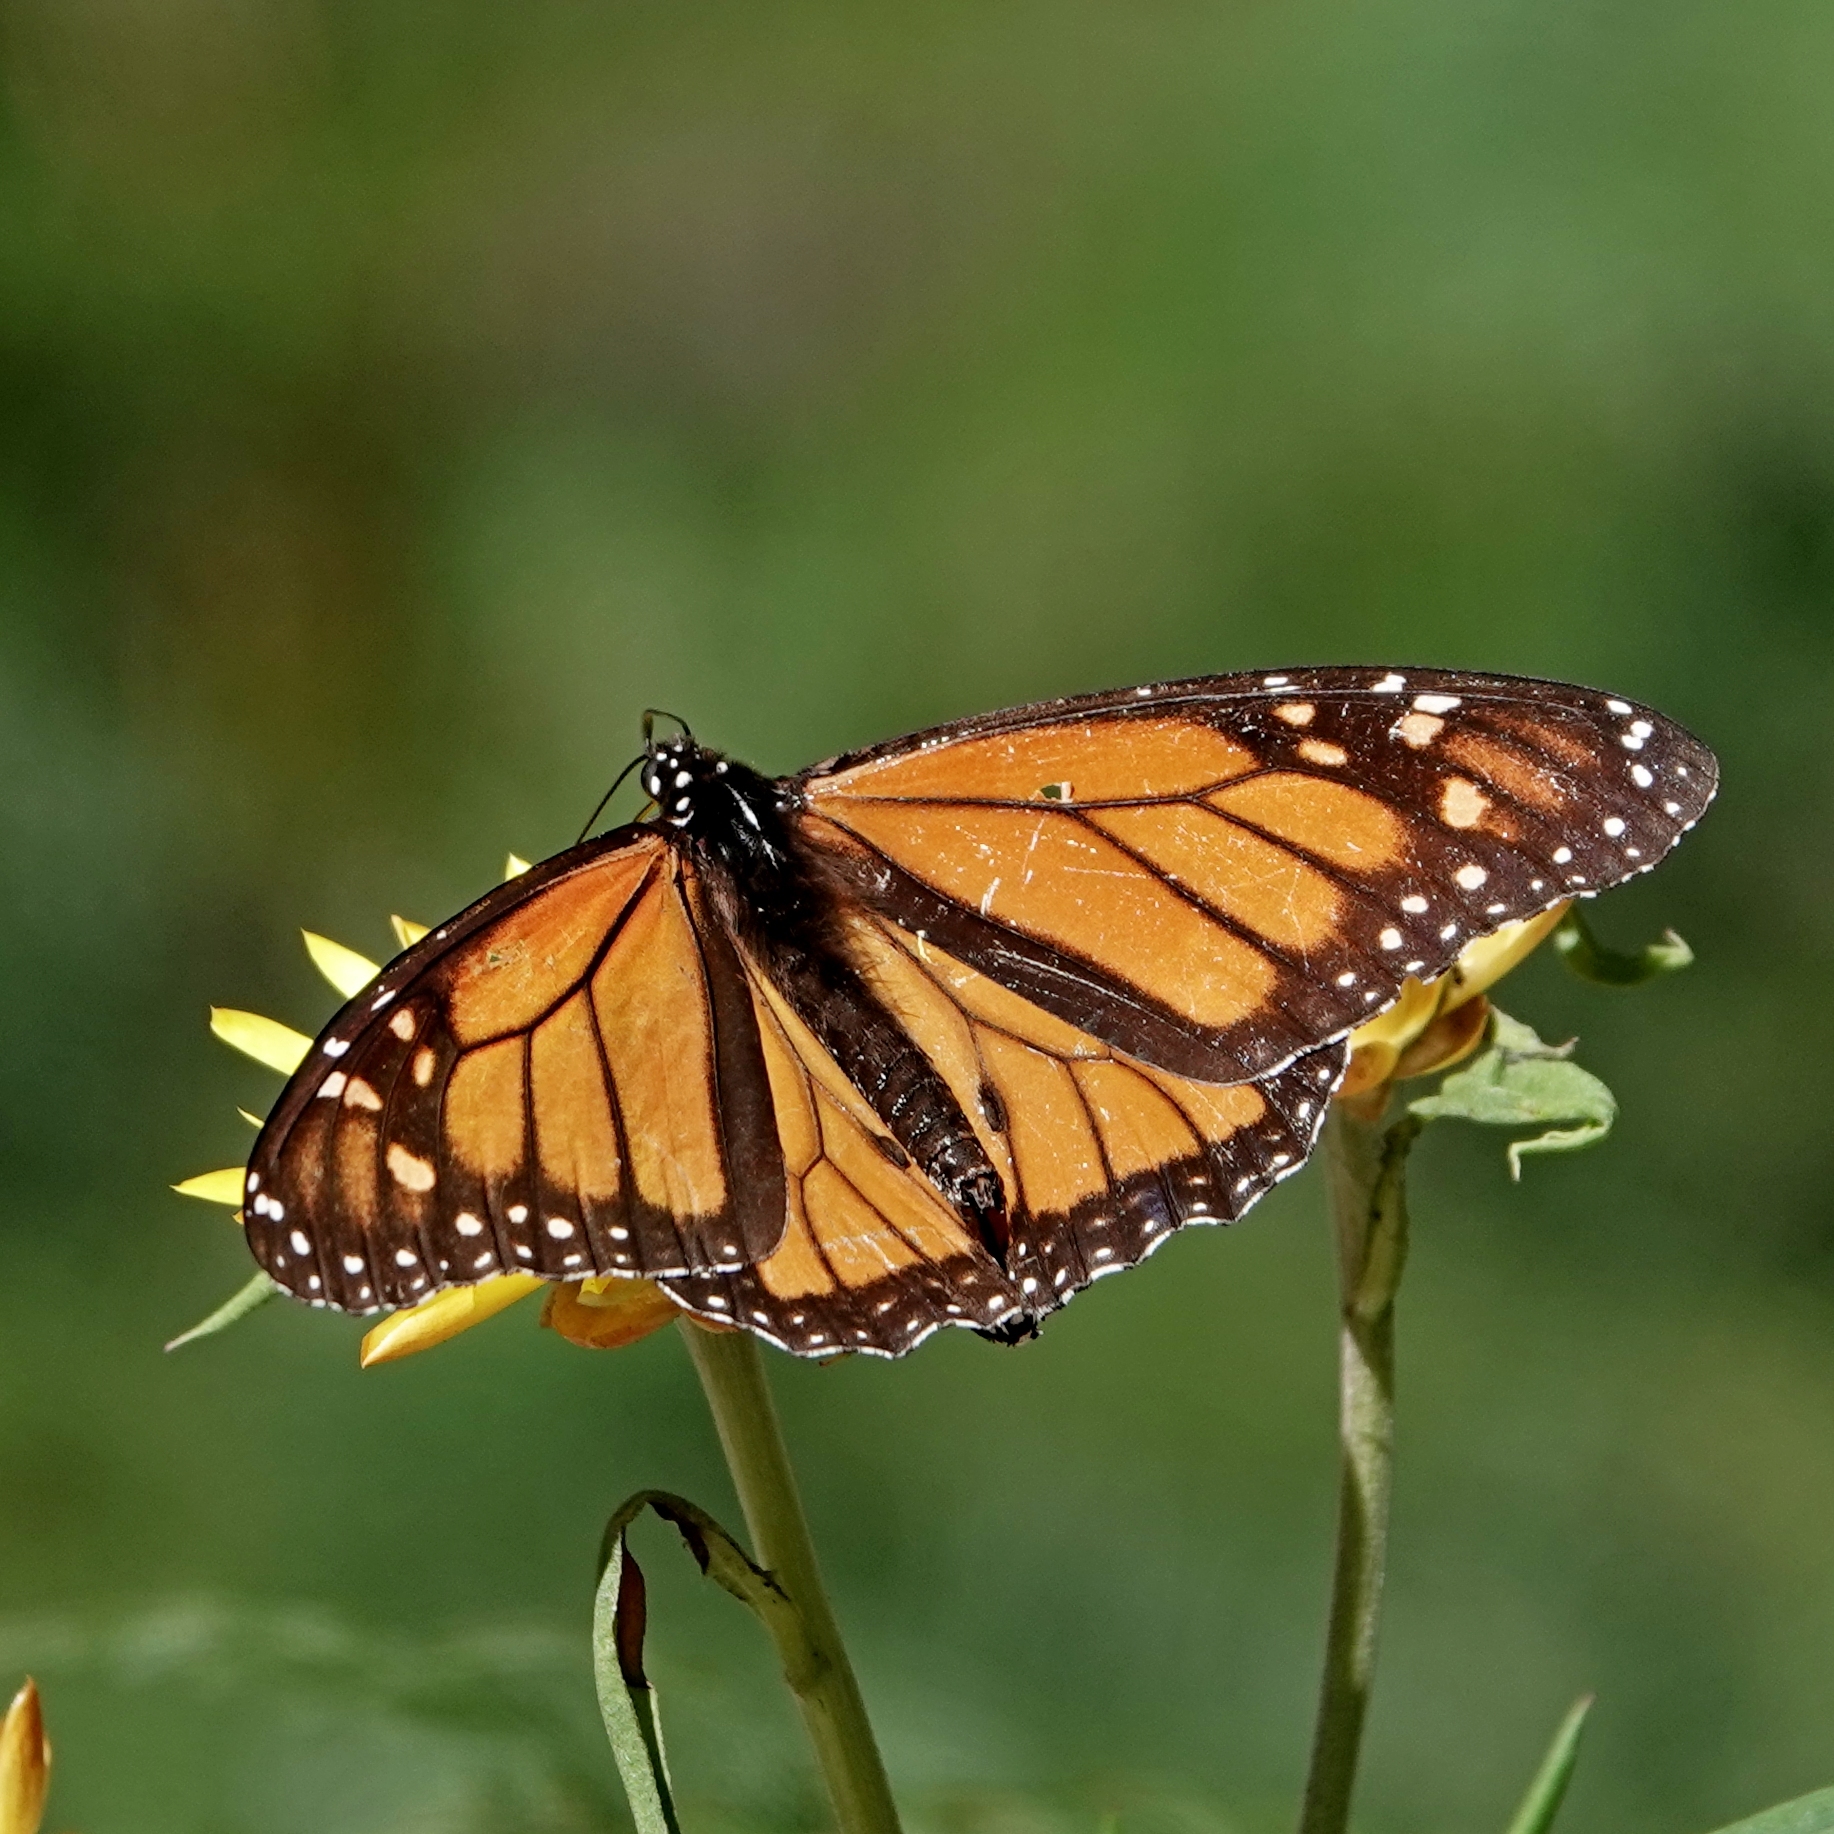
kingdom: Animalia
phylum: Arthropoda
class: Insecta
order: Lepidoptera
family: Nymphalidae
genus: Danaus
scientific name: Danaus plexippus
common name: Monarch
